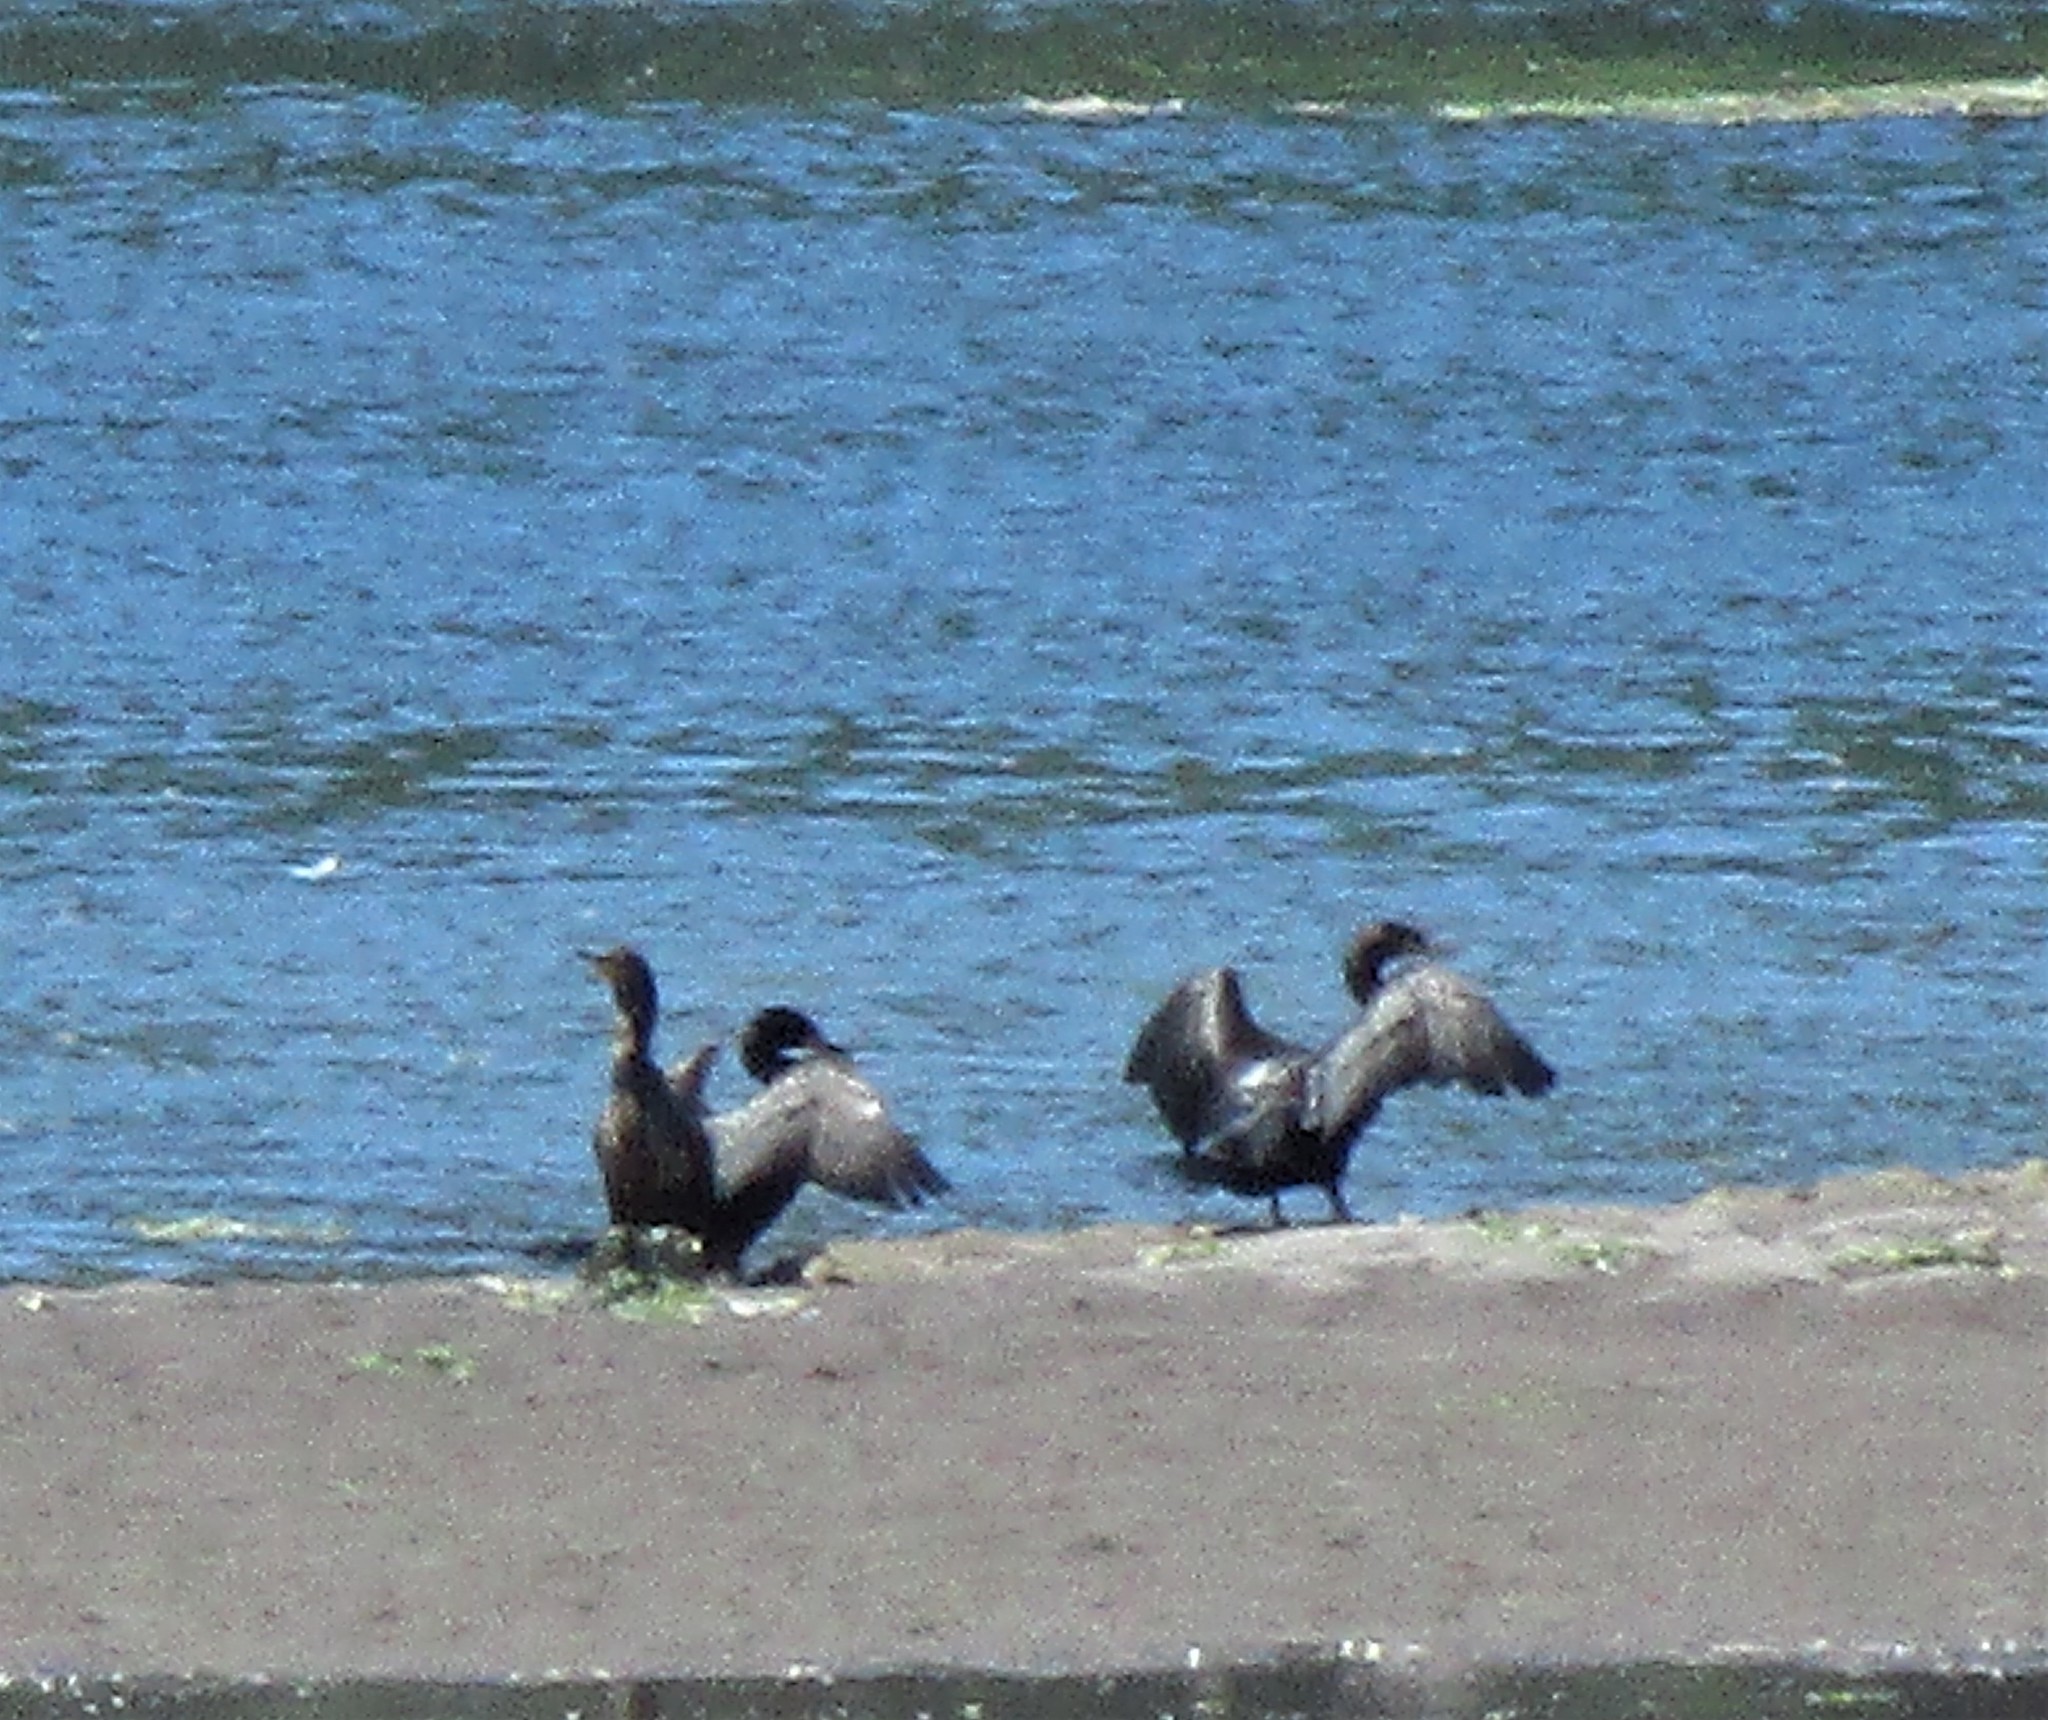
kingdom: Animalia
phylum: Chordata
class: Aves
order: Suliformes
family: Phalacrocoracidae
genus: Phalacrocorax
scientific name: Phalacrocorax auritus
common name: Double-crested cormorant
